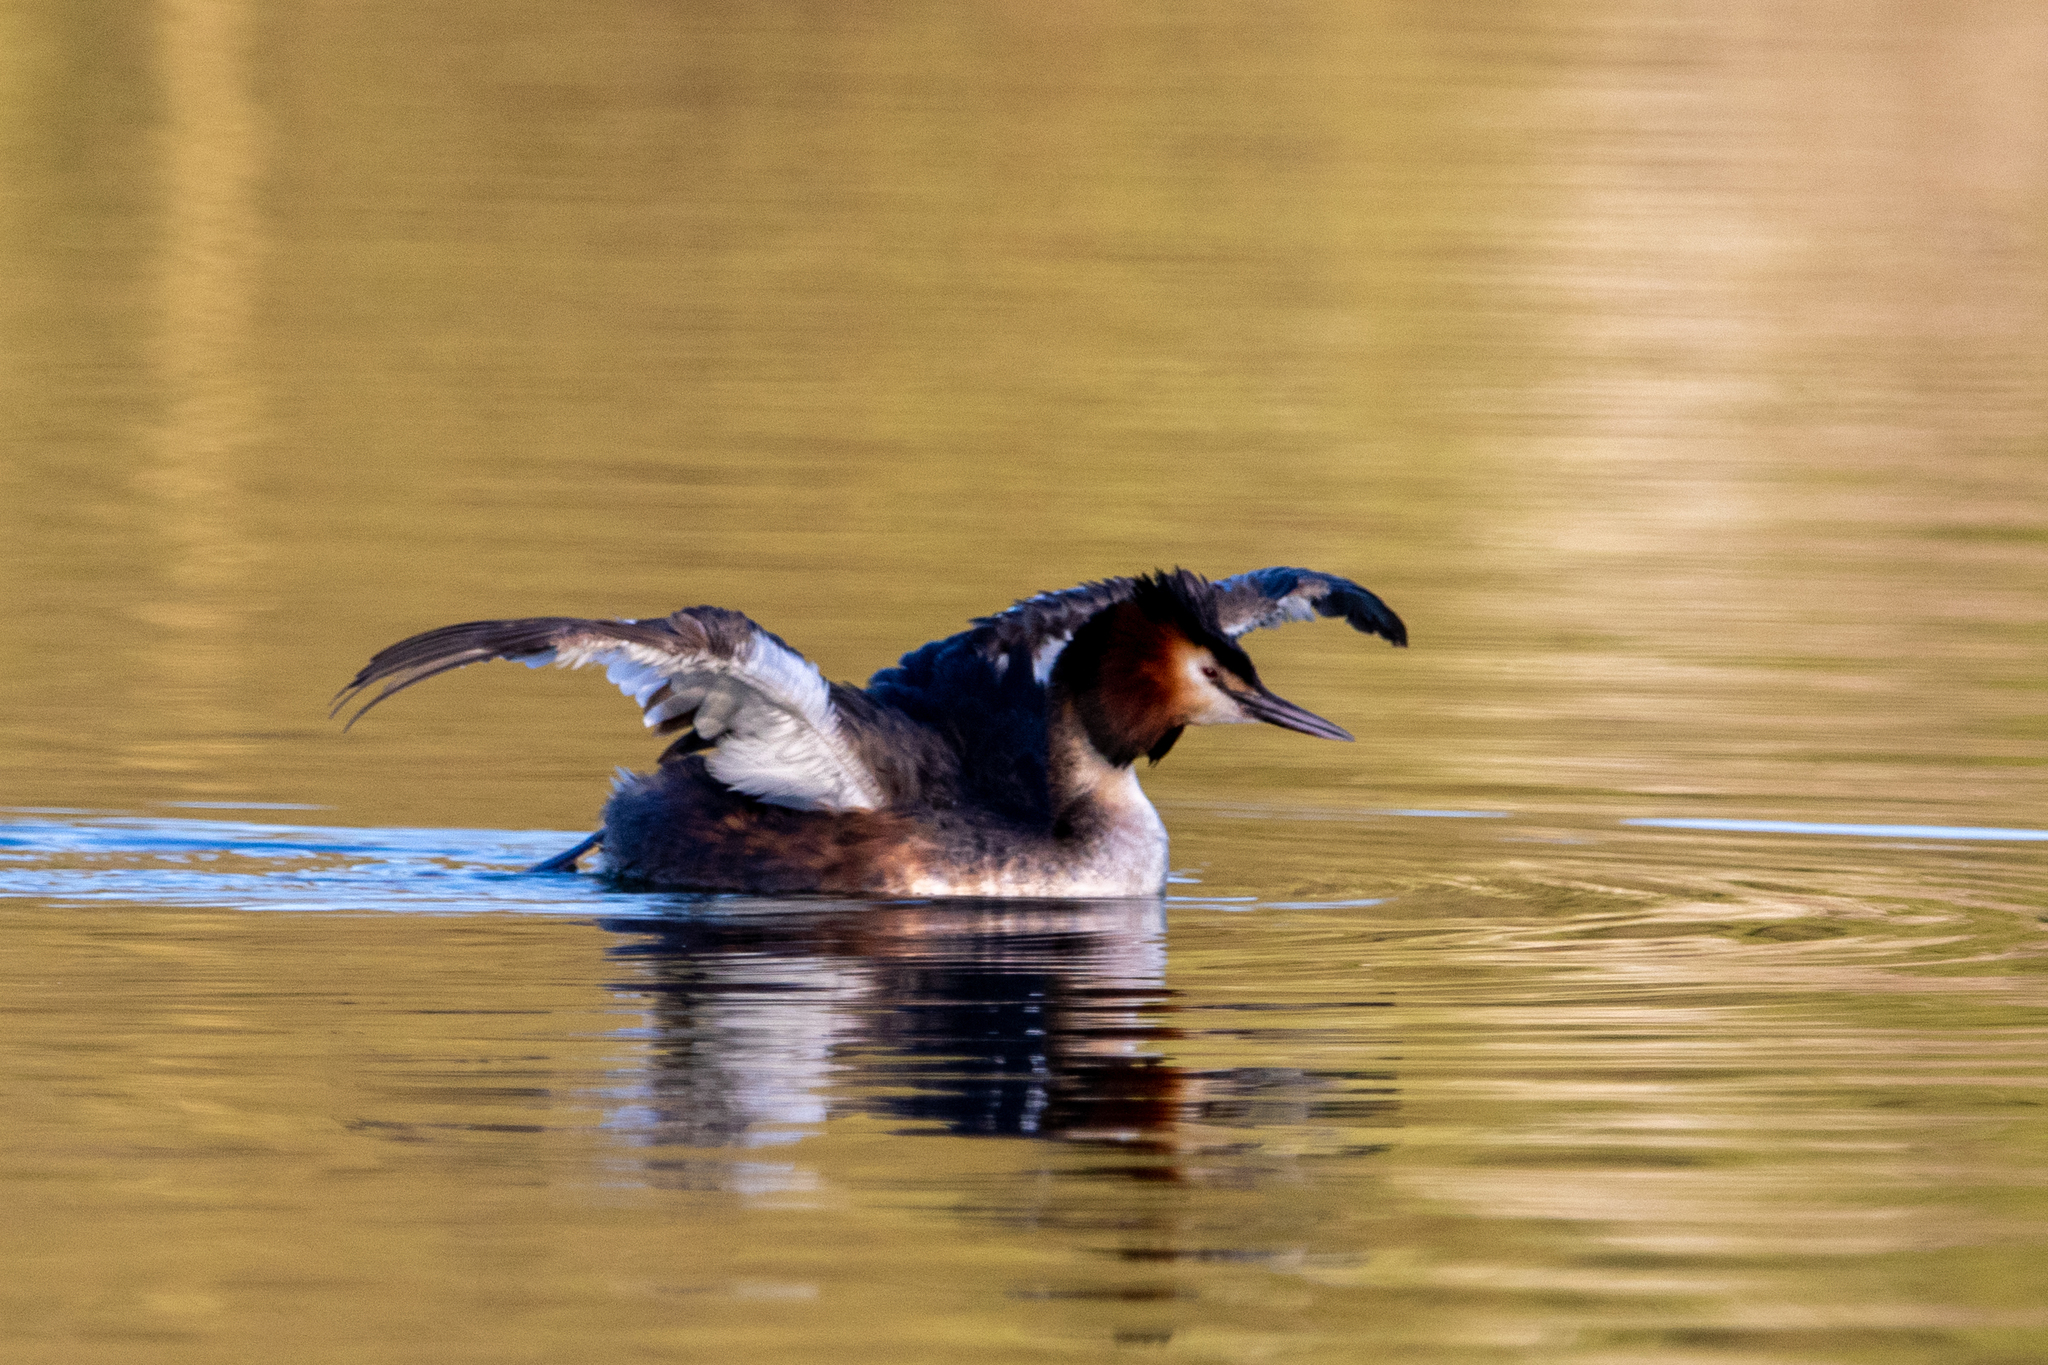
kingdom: Animalia
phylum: Chordata
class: Aves
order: Podicipediformes
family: Podicipedidae
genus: Podiceps
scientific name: Podiceps cristatus
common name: Great crested grebe
